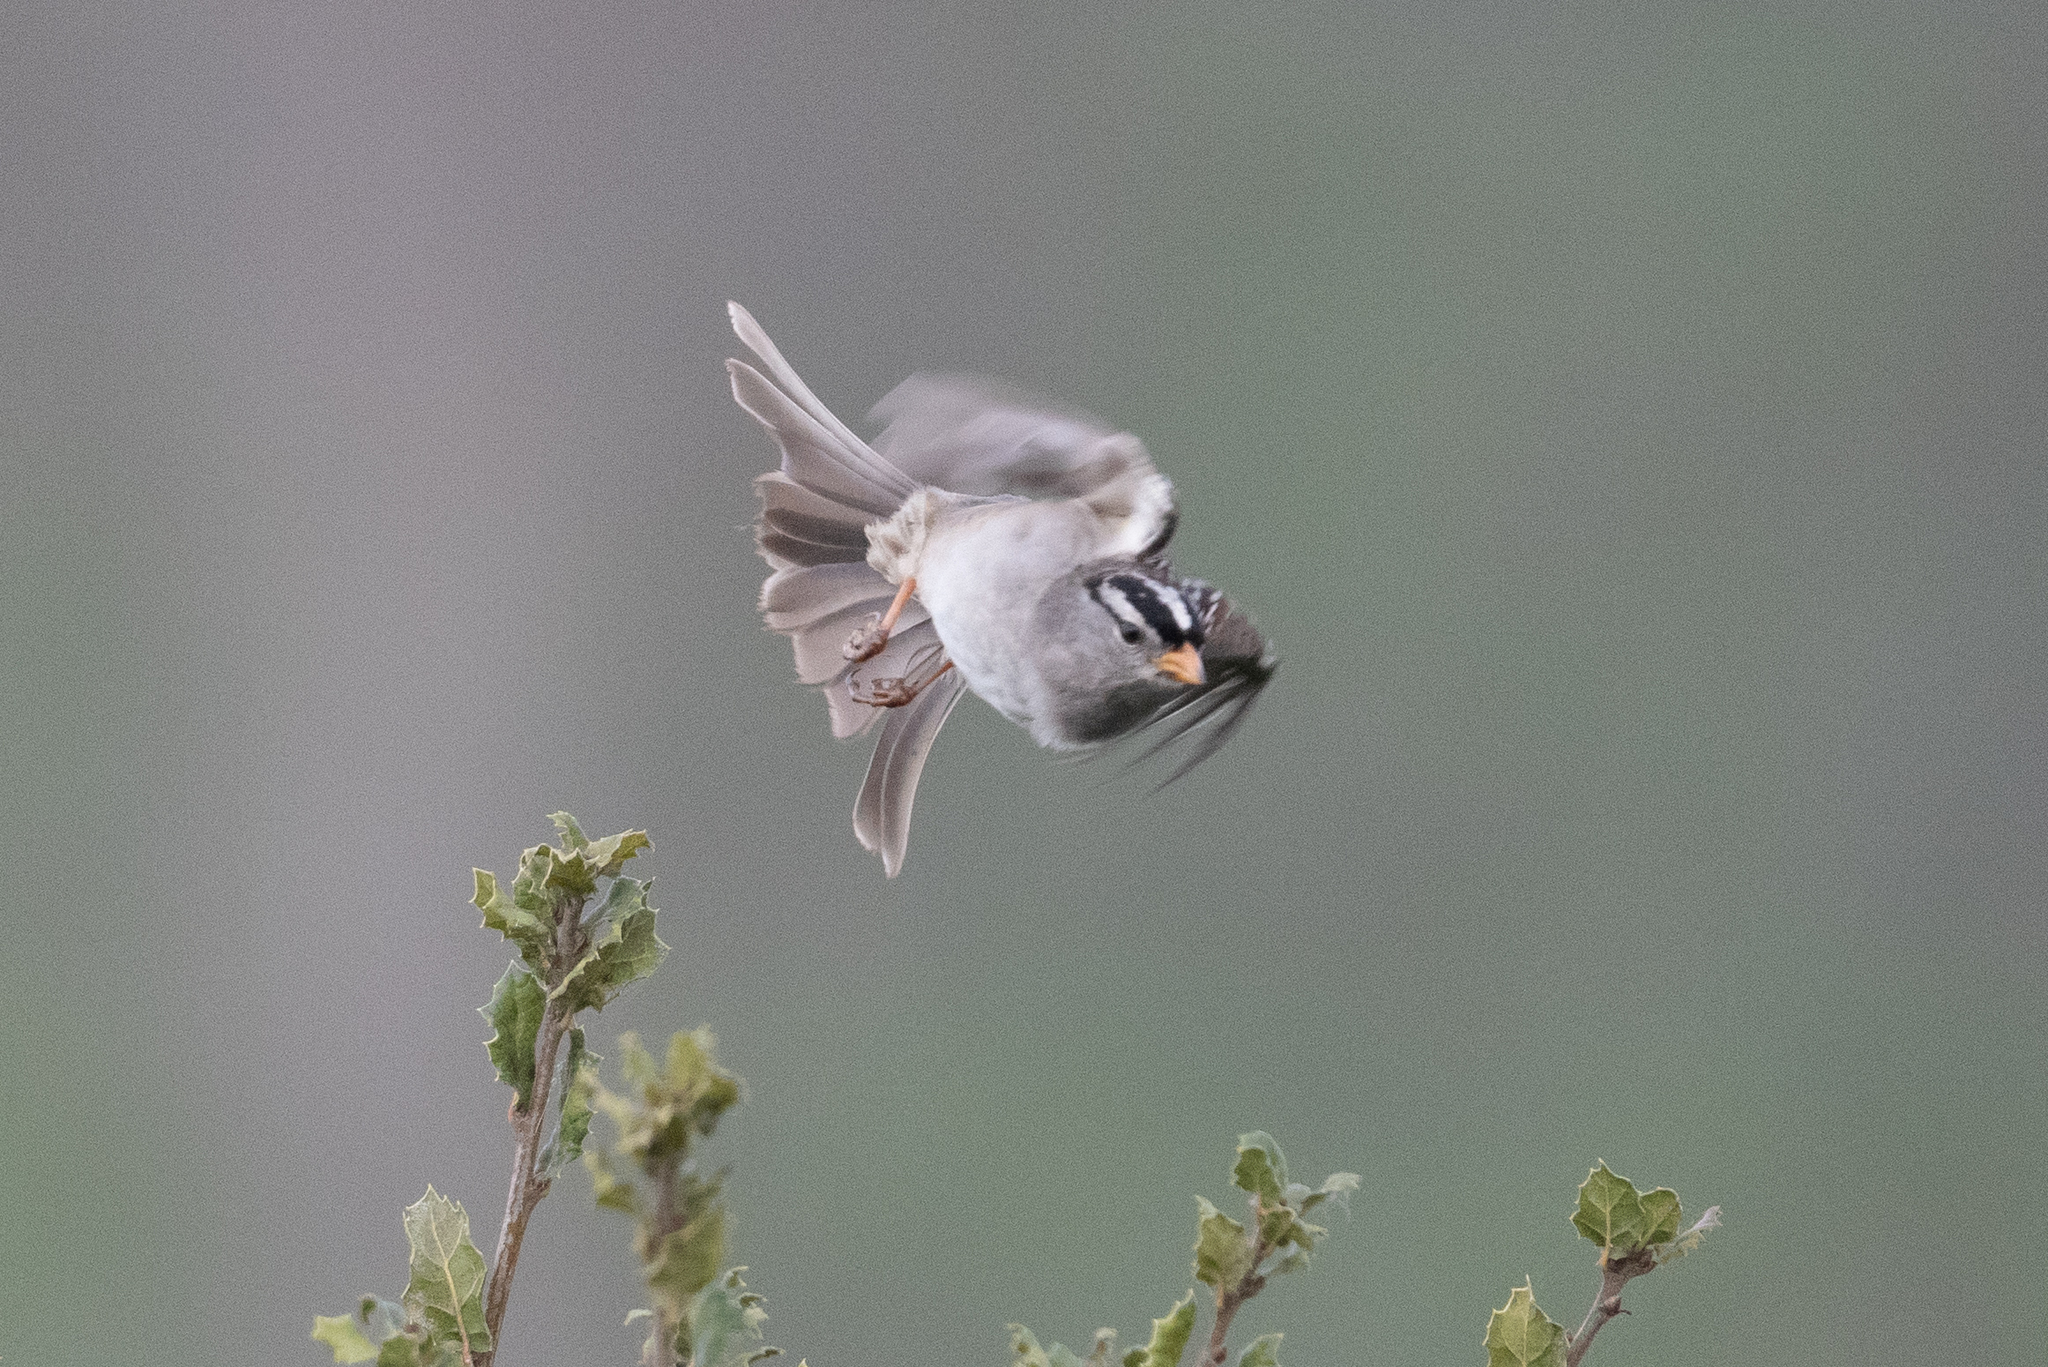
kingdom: Animalia
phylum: Chordata
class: Aves
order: Passeriformes
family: Passerellidae
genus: Zonotrichia
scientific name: Zonotrichia leucophrys
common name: White-crowned sparrow
